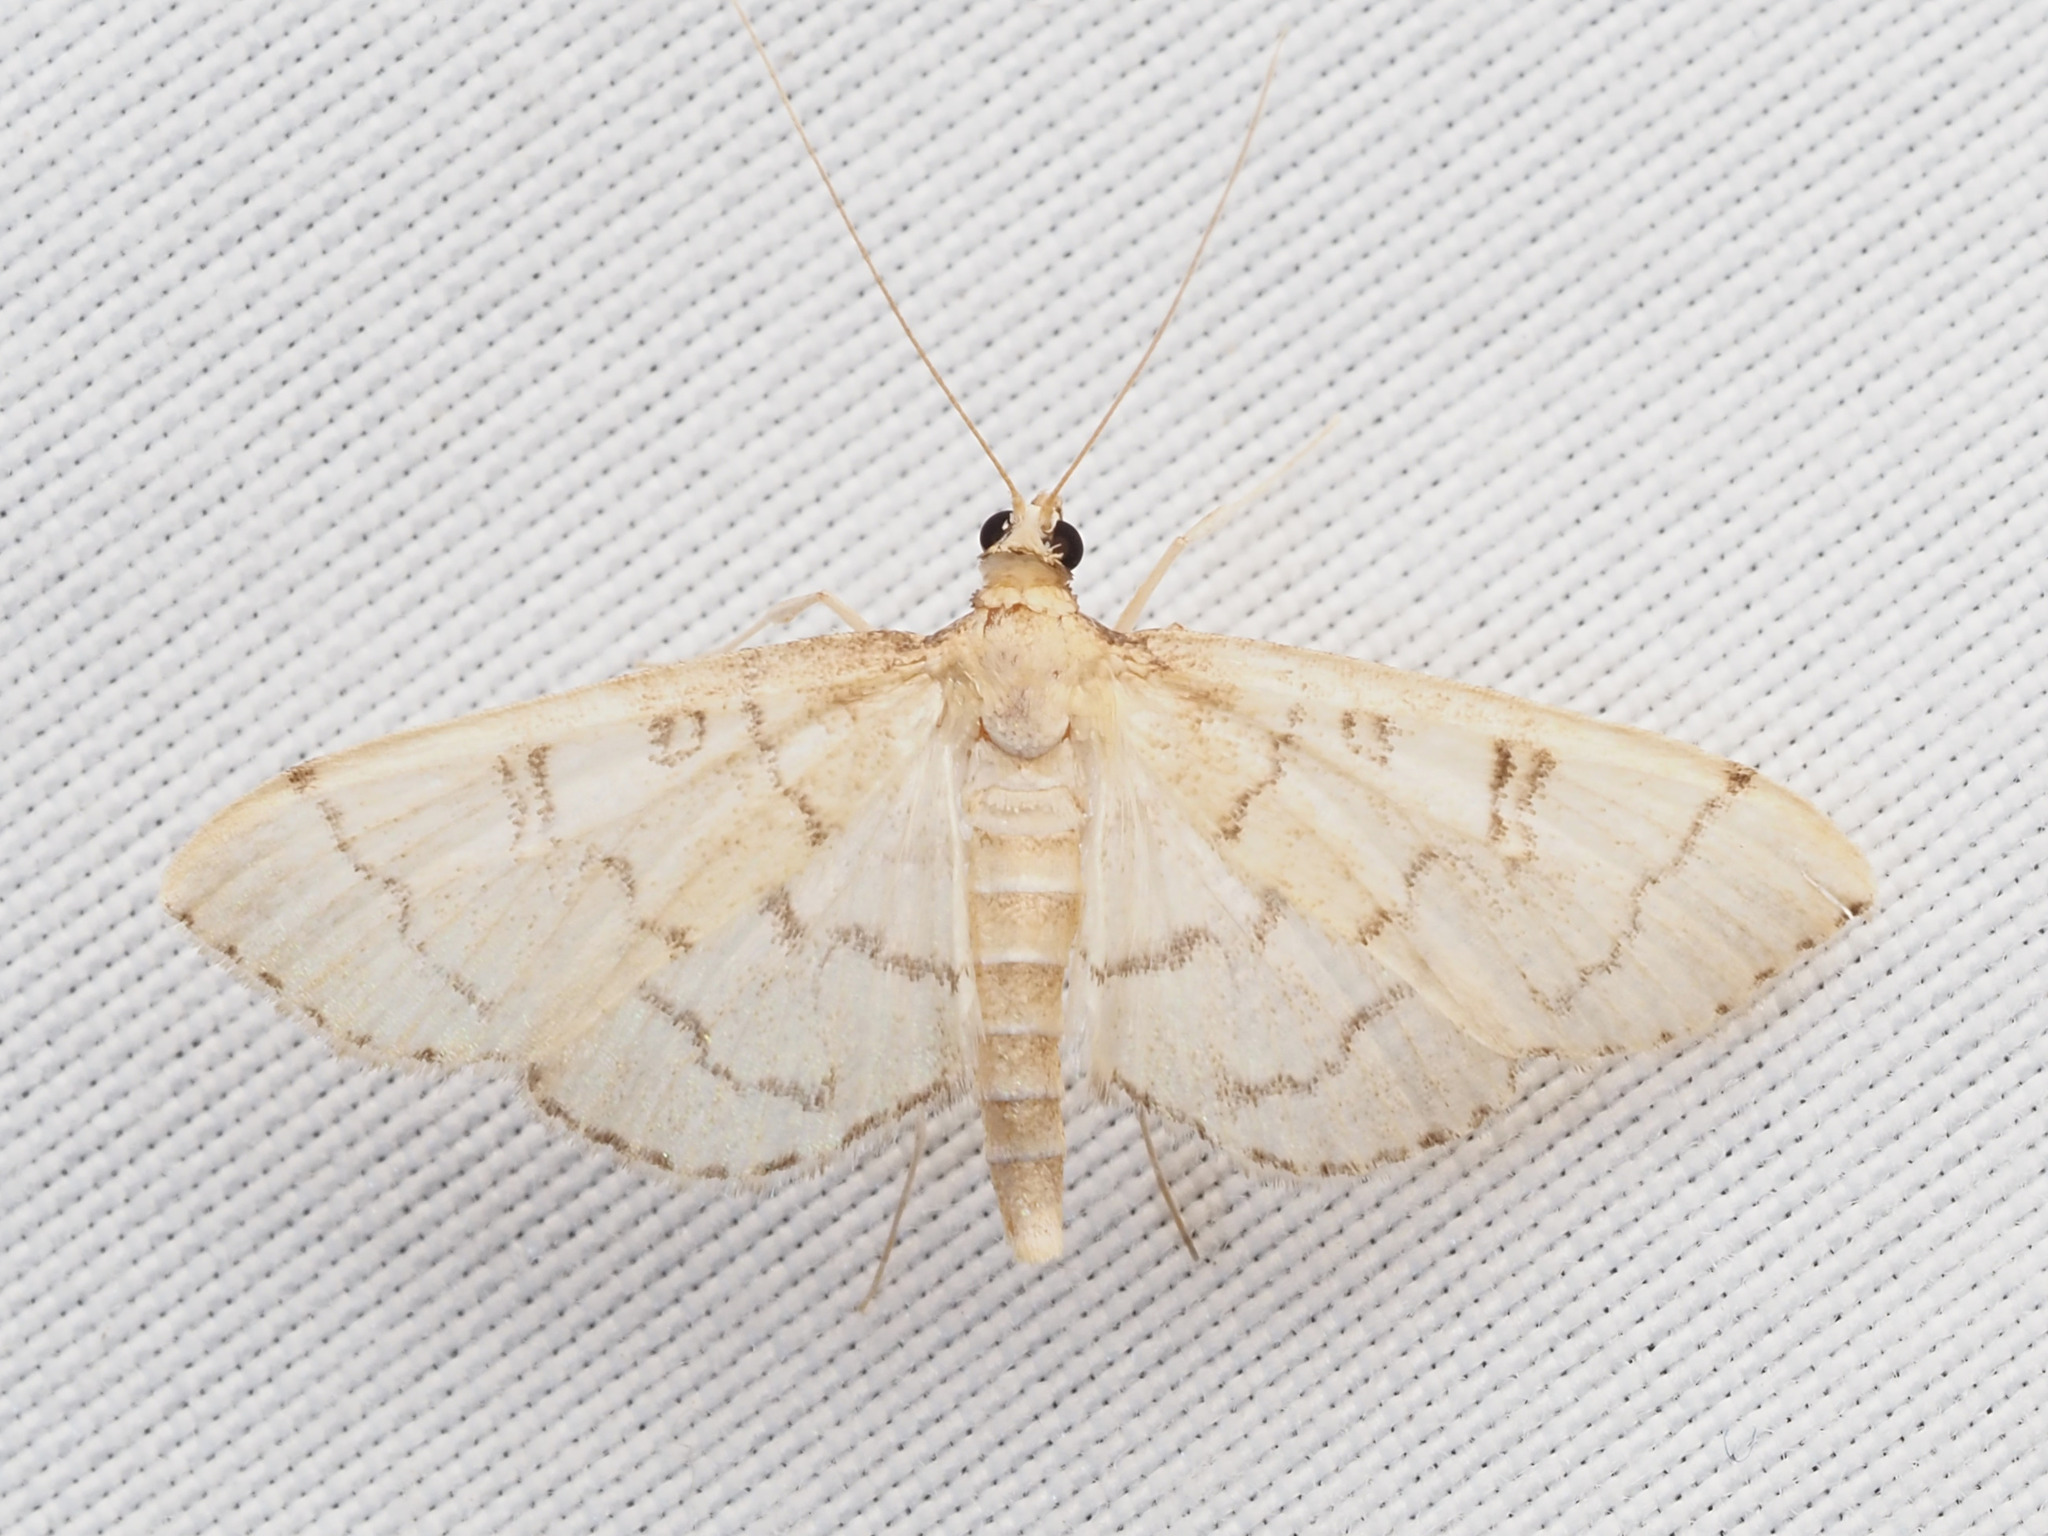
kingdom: Animalia
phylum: Arthropoda
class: Insecta
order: Lepidoptera
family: Crambidae
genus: Lamprosema
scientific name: Lamprosema Blepharomastix ranalis
